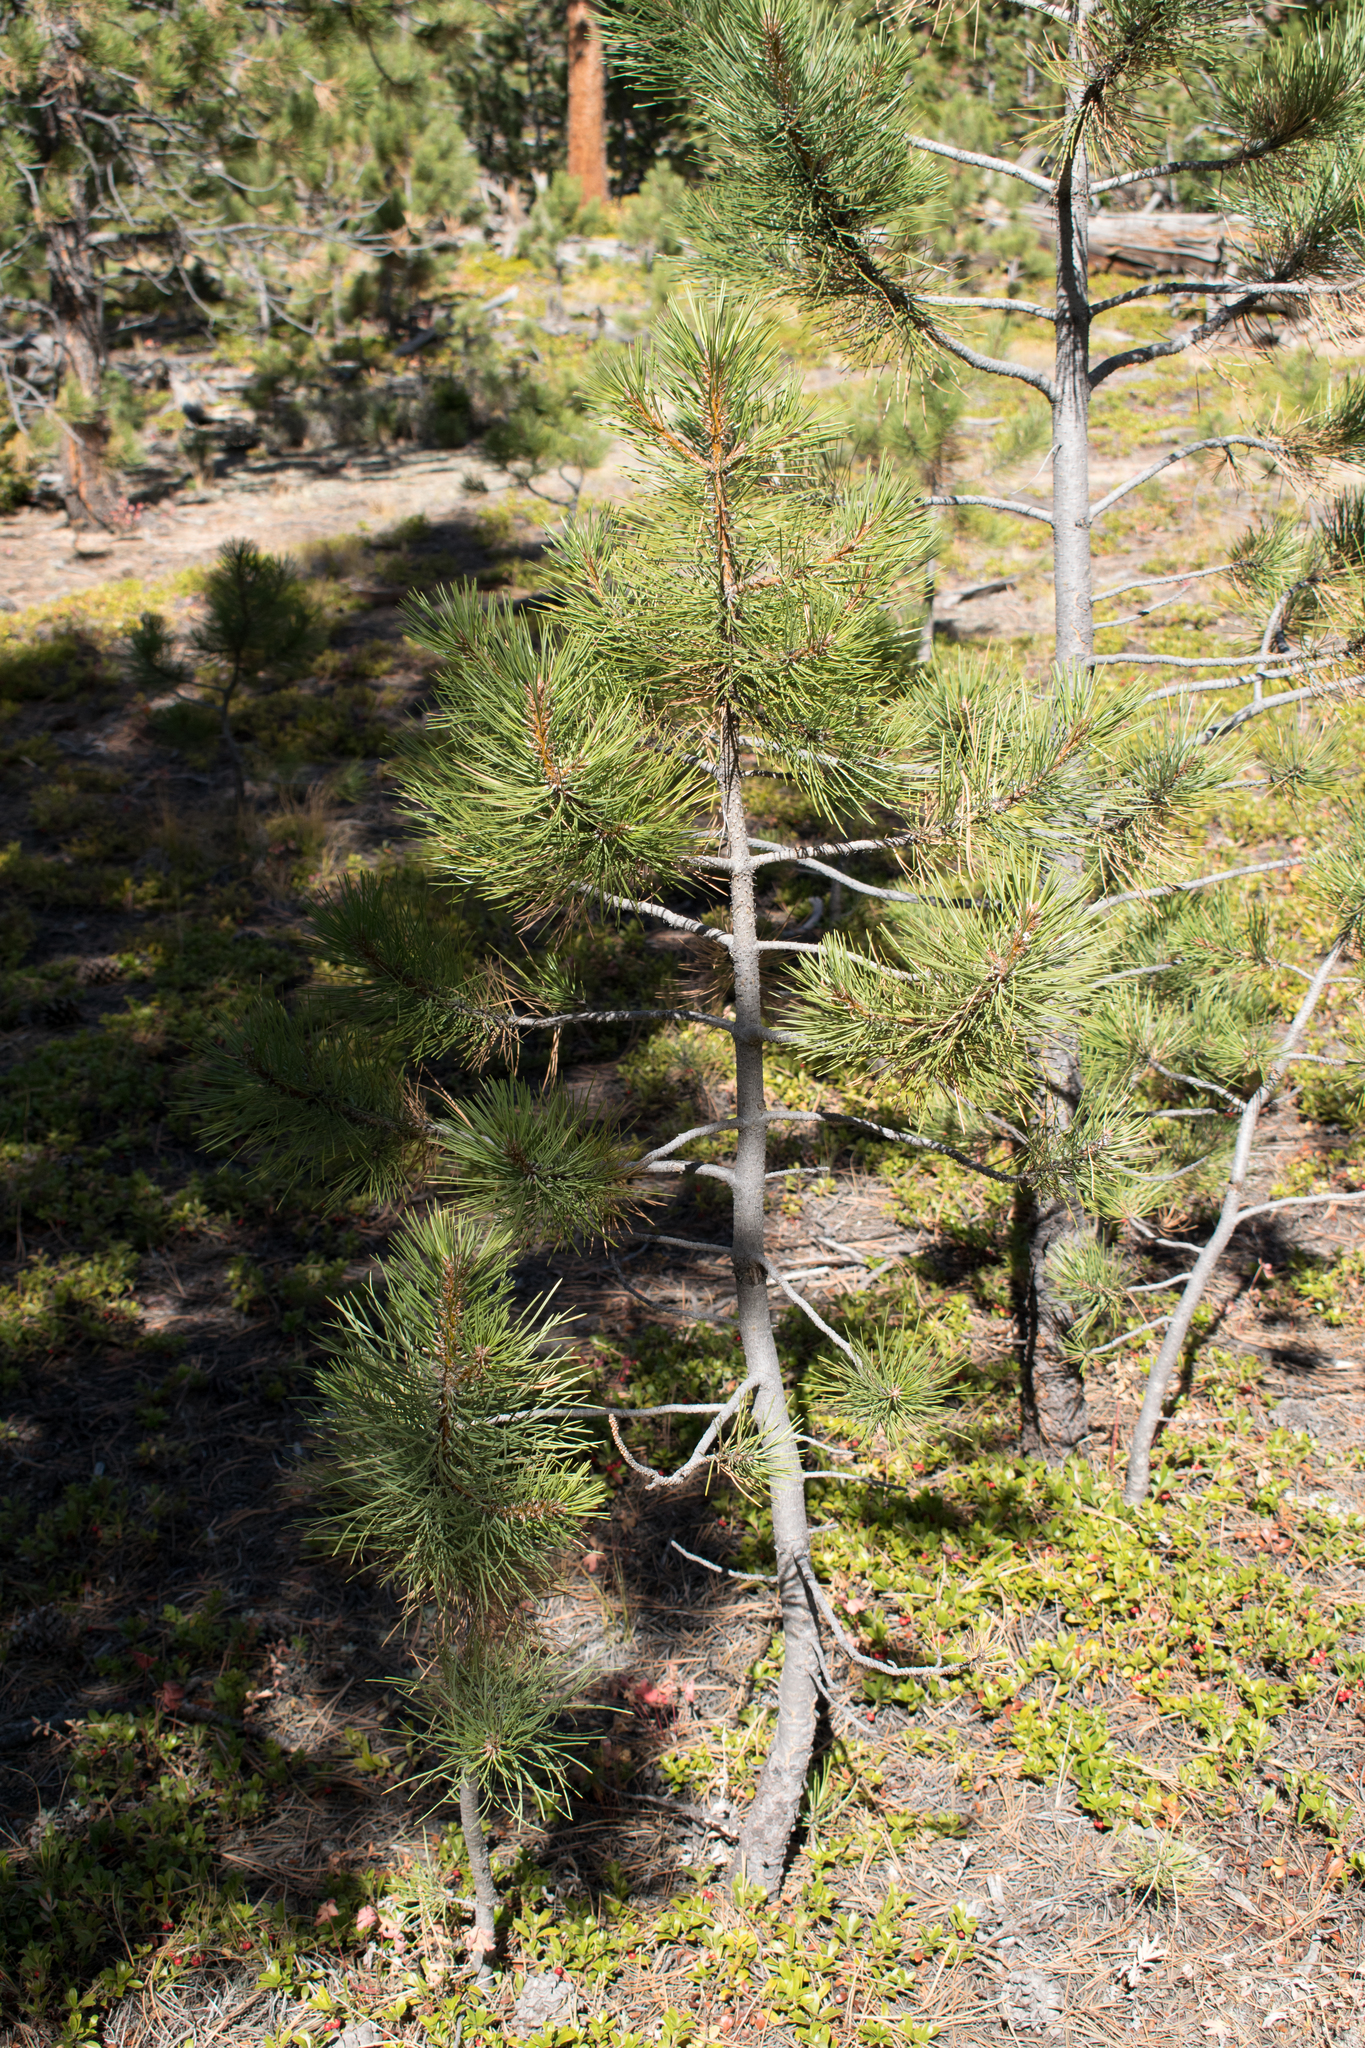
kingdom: Plantae
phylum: Tracheophyta
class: Pinopsida
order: Pinales
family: Pinaceae
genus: Pinus
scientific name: Pinus ponderosa
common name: Western yellow-pine
